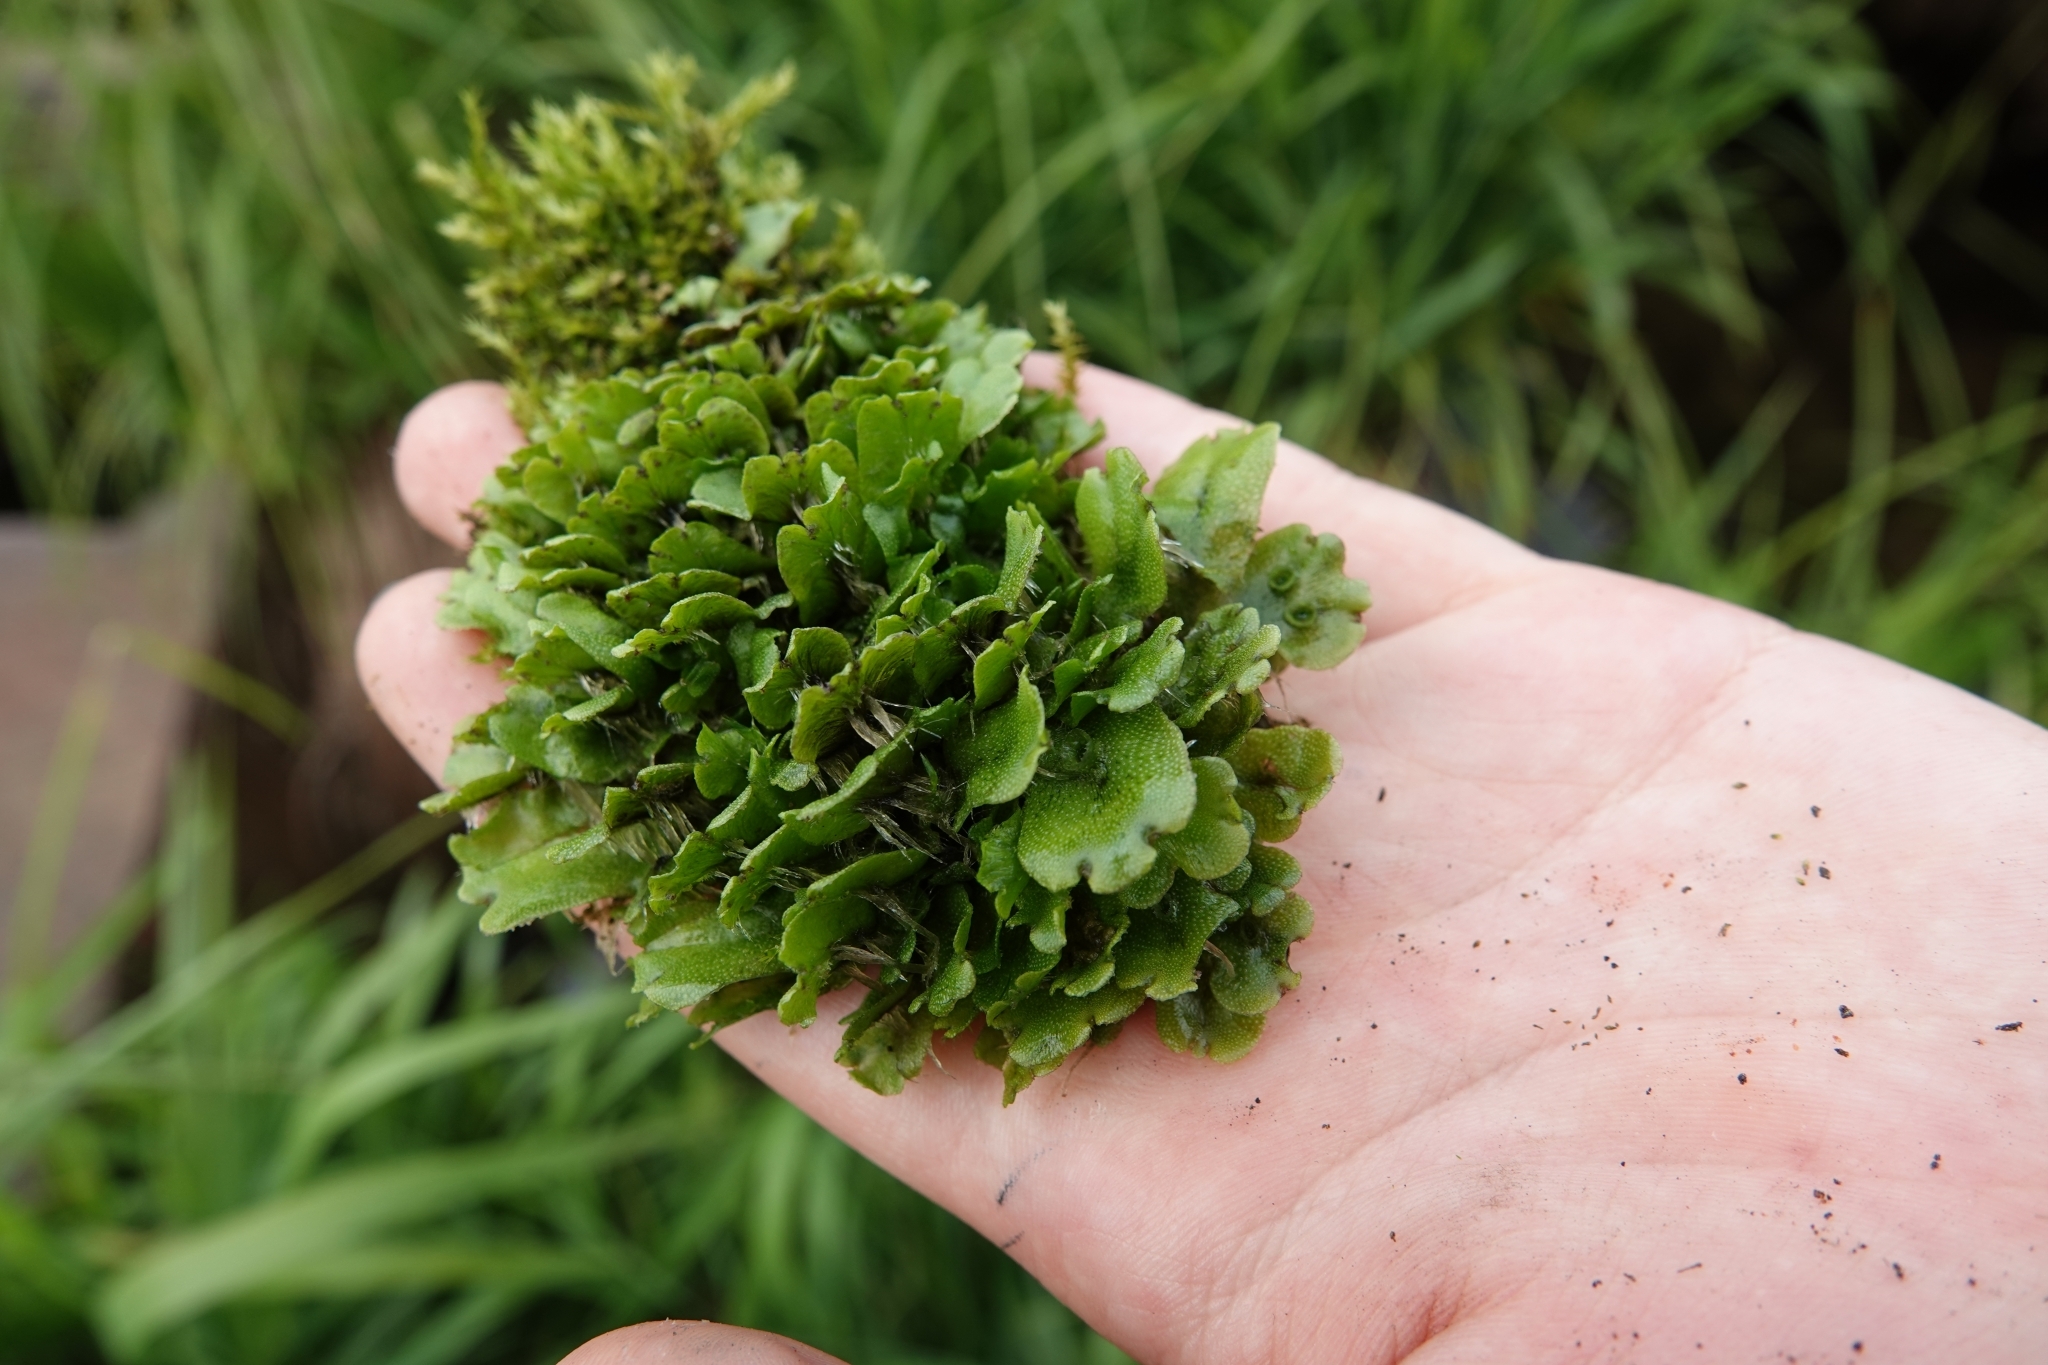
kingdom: Plantae
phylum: Marchantiophyta
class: Marchantiopsida
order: Marchantiales
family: Marchantiaceae
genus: Marchantia
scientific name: Marchantia polymorpha
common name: Common liverwort
